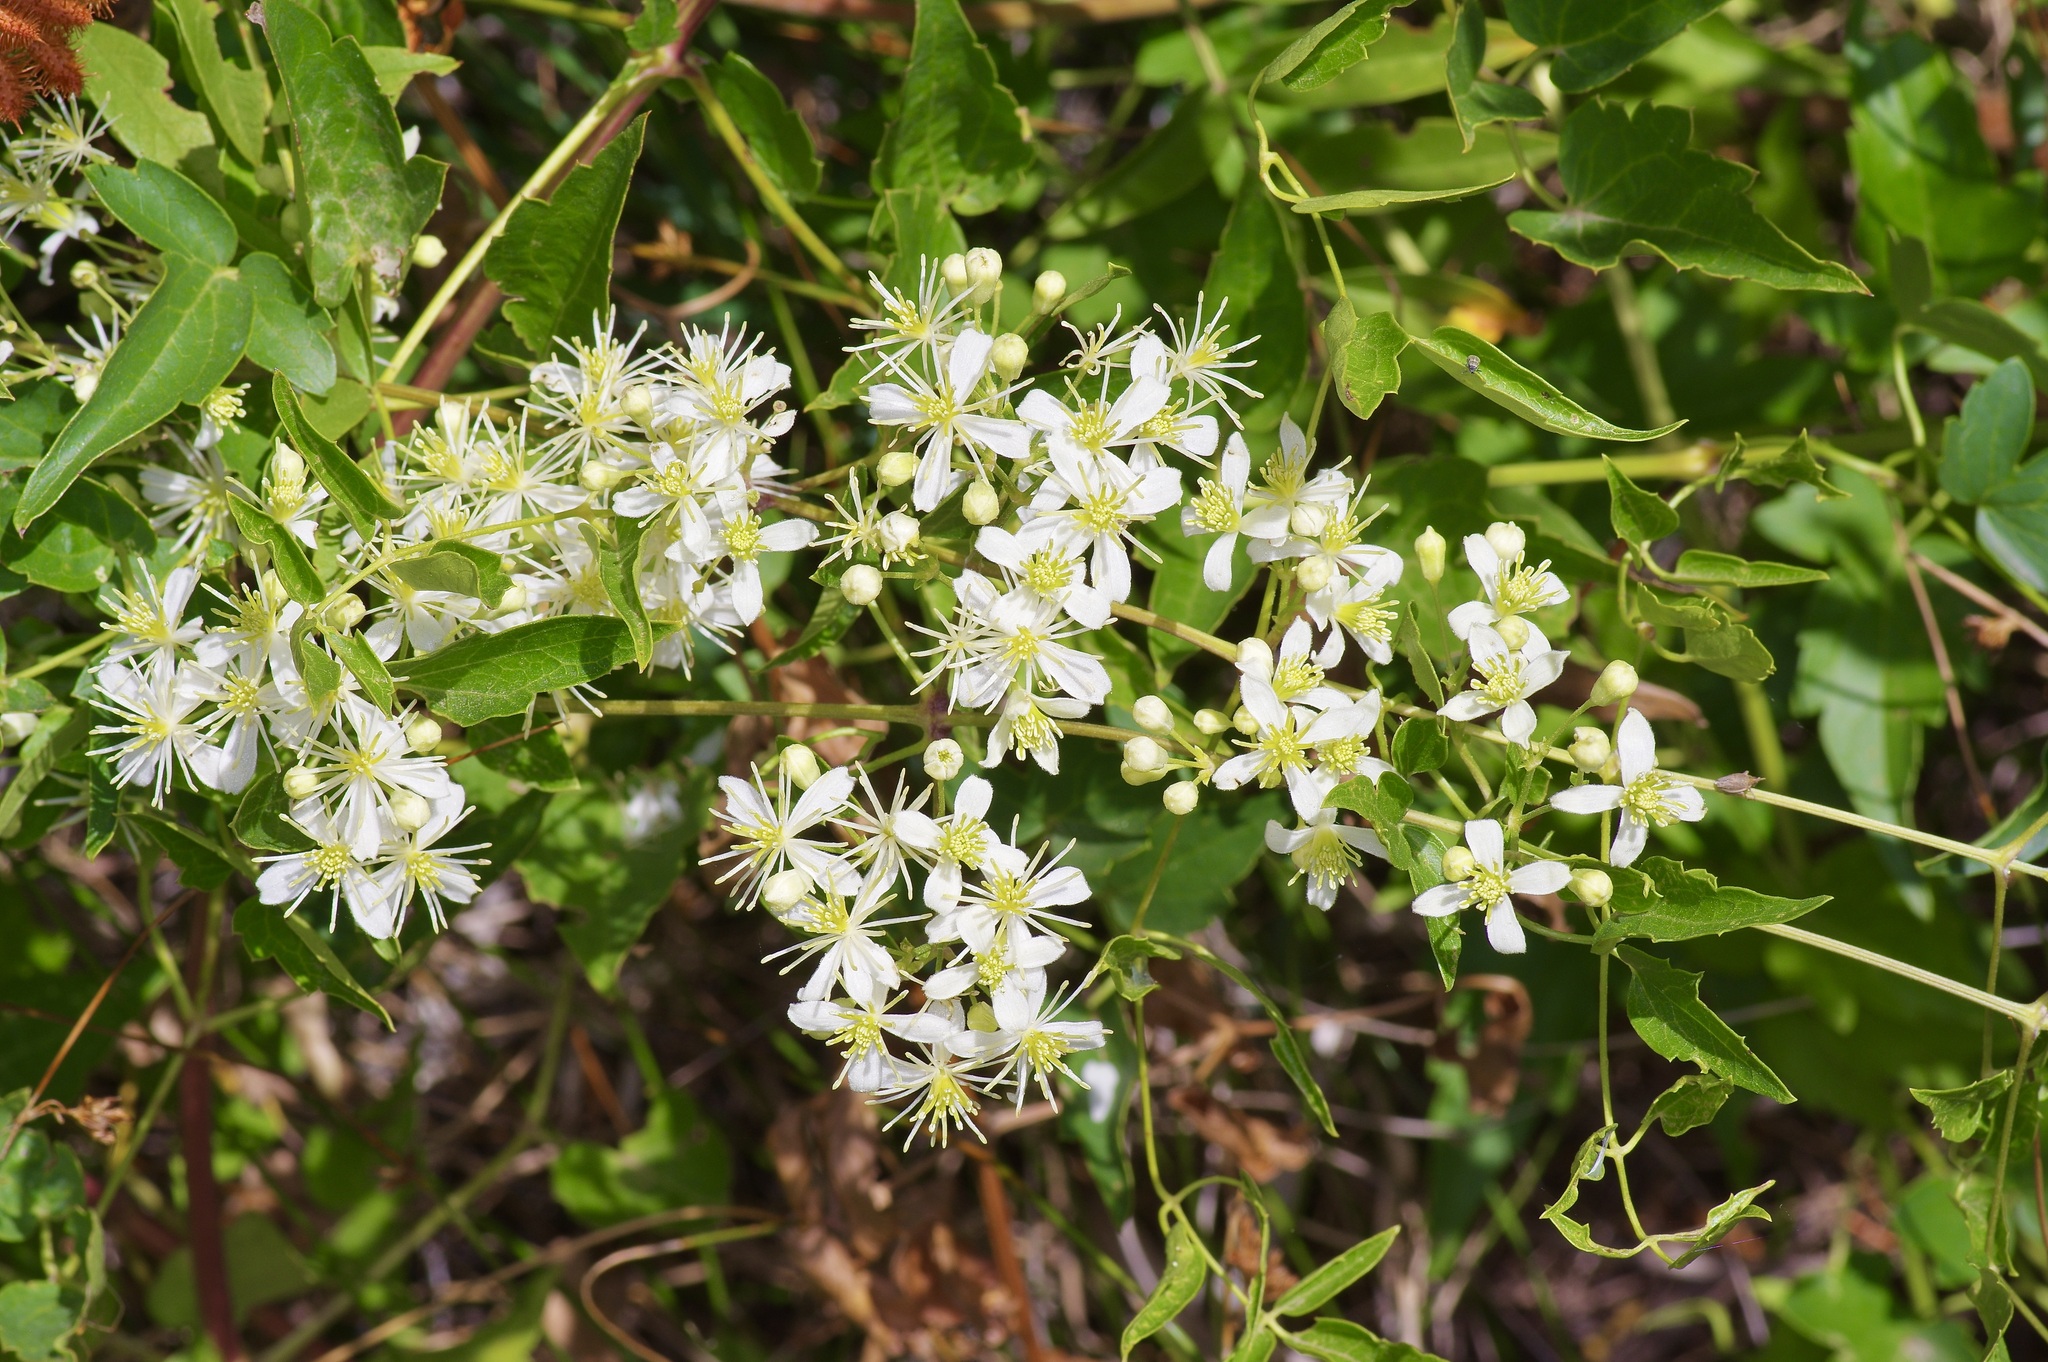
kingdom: Plantae
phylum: Tracheophyta
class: Magnoliopsida
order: Ranunculales
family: Ranunculaceae
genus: Clematis
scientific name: Clematis ligusticifolia
